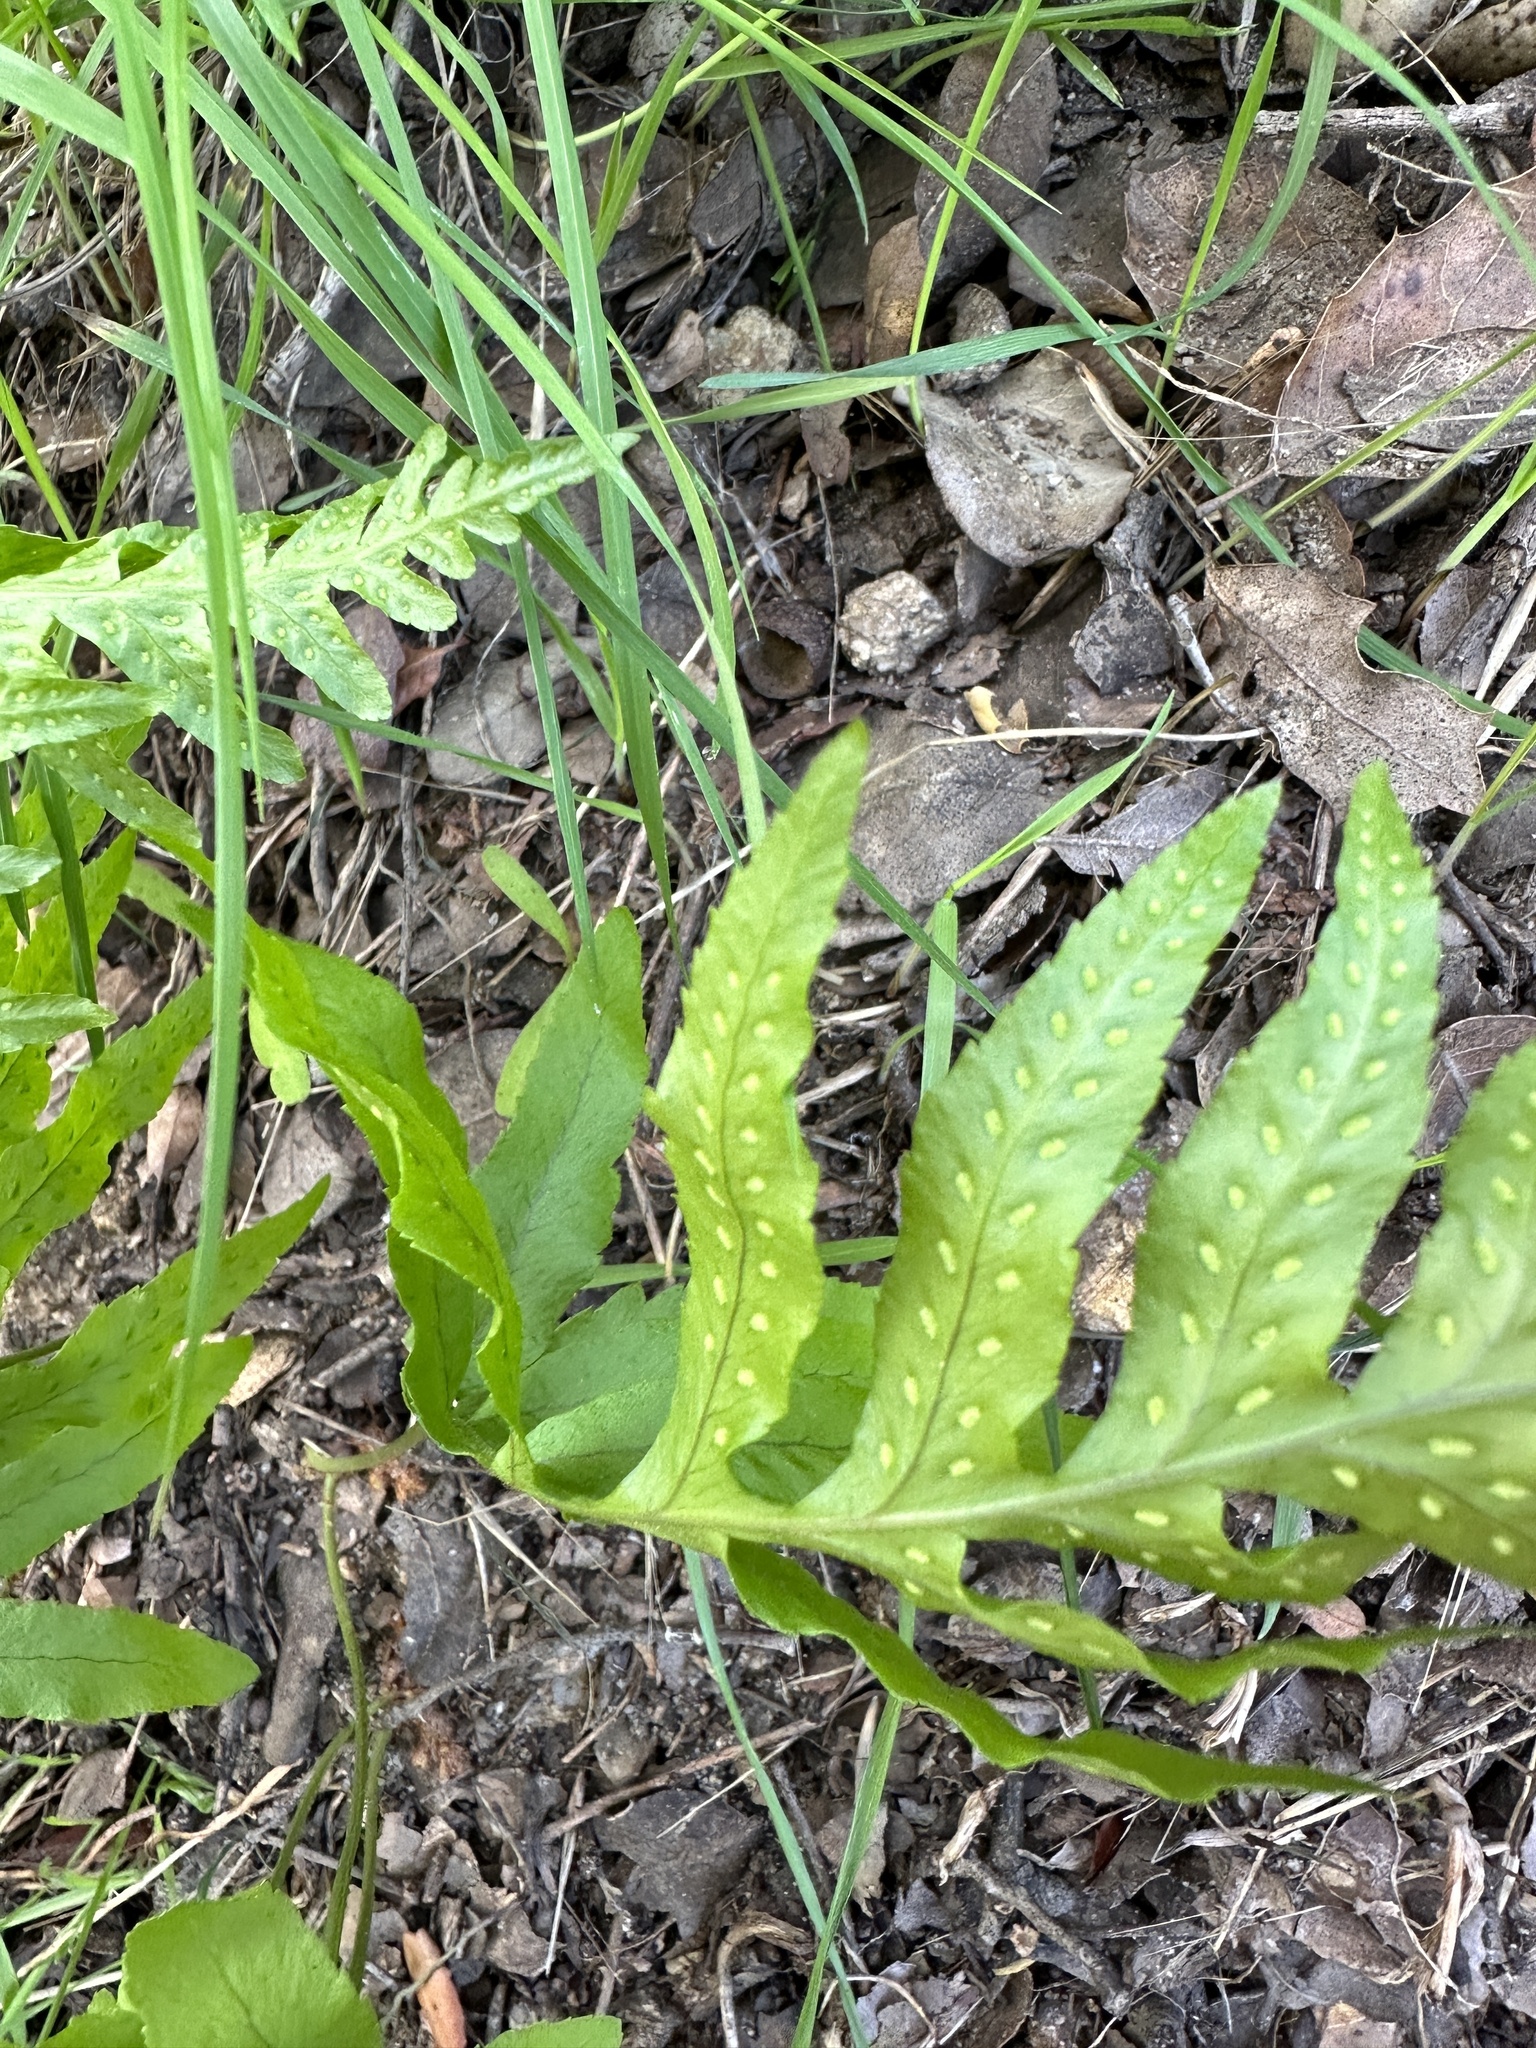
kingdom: Plantae
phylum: Tracheophyta
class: Polypodiopsida
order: Polypodiales
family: Polypodiaceae
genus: Polypodium
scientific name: Polypodium californicum
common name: California polypody
